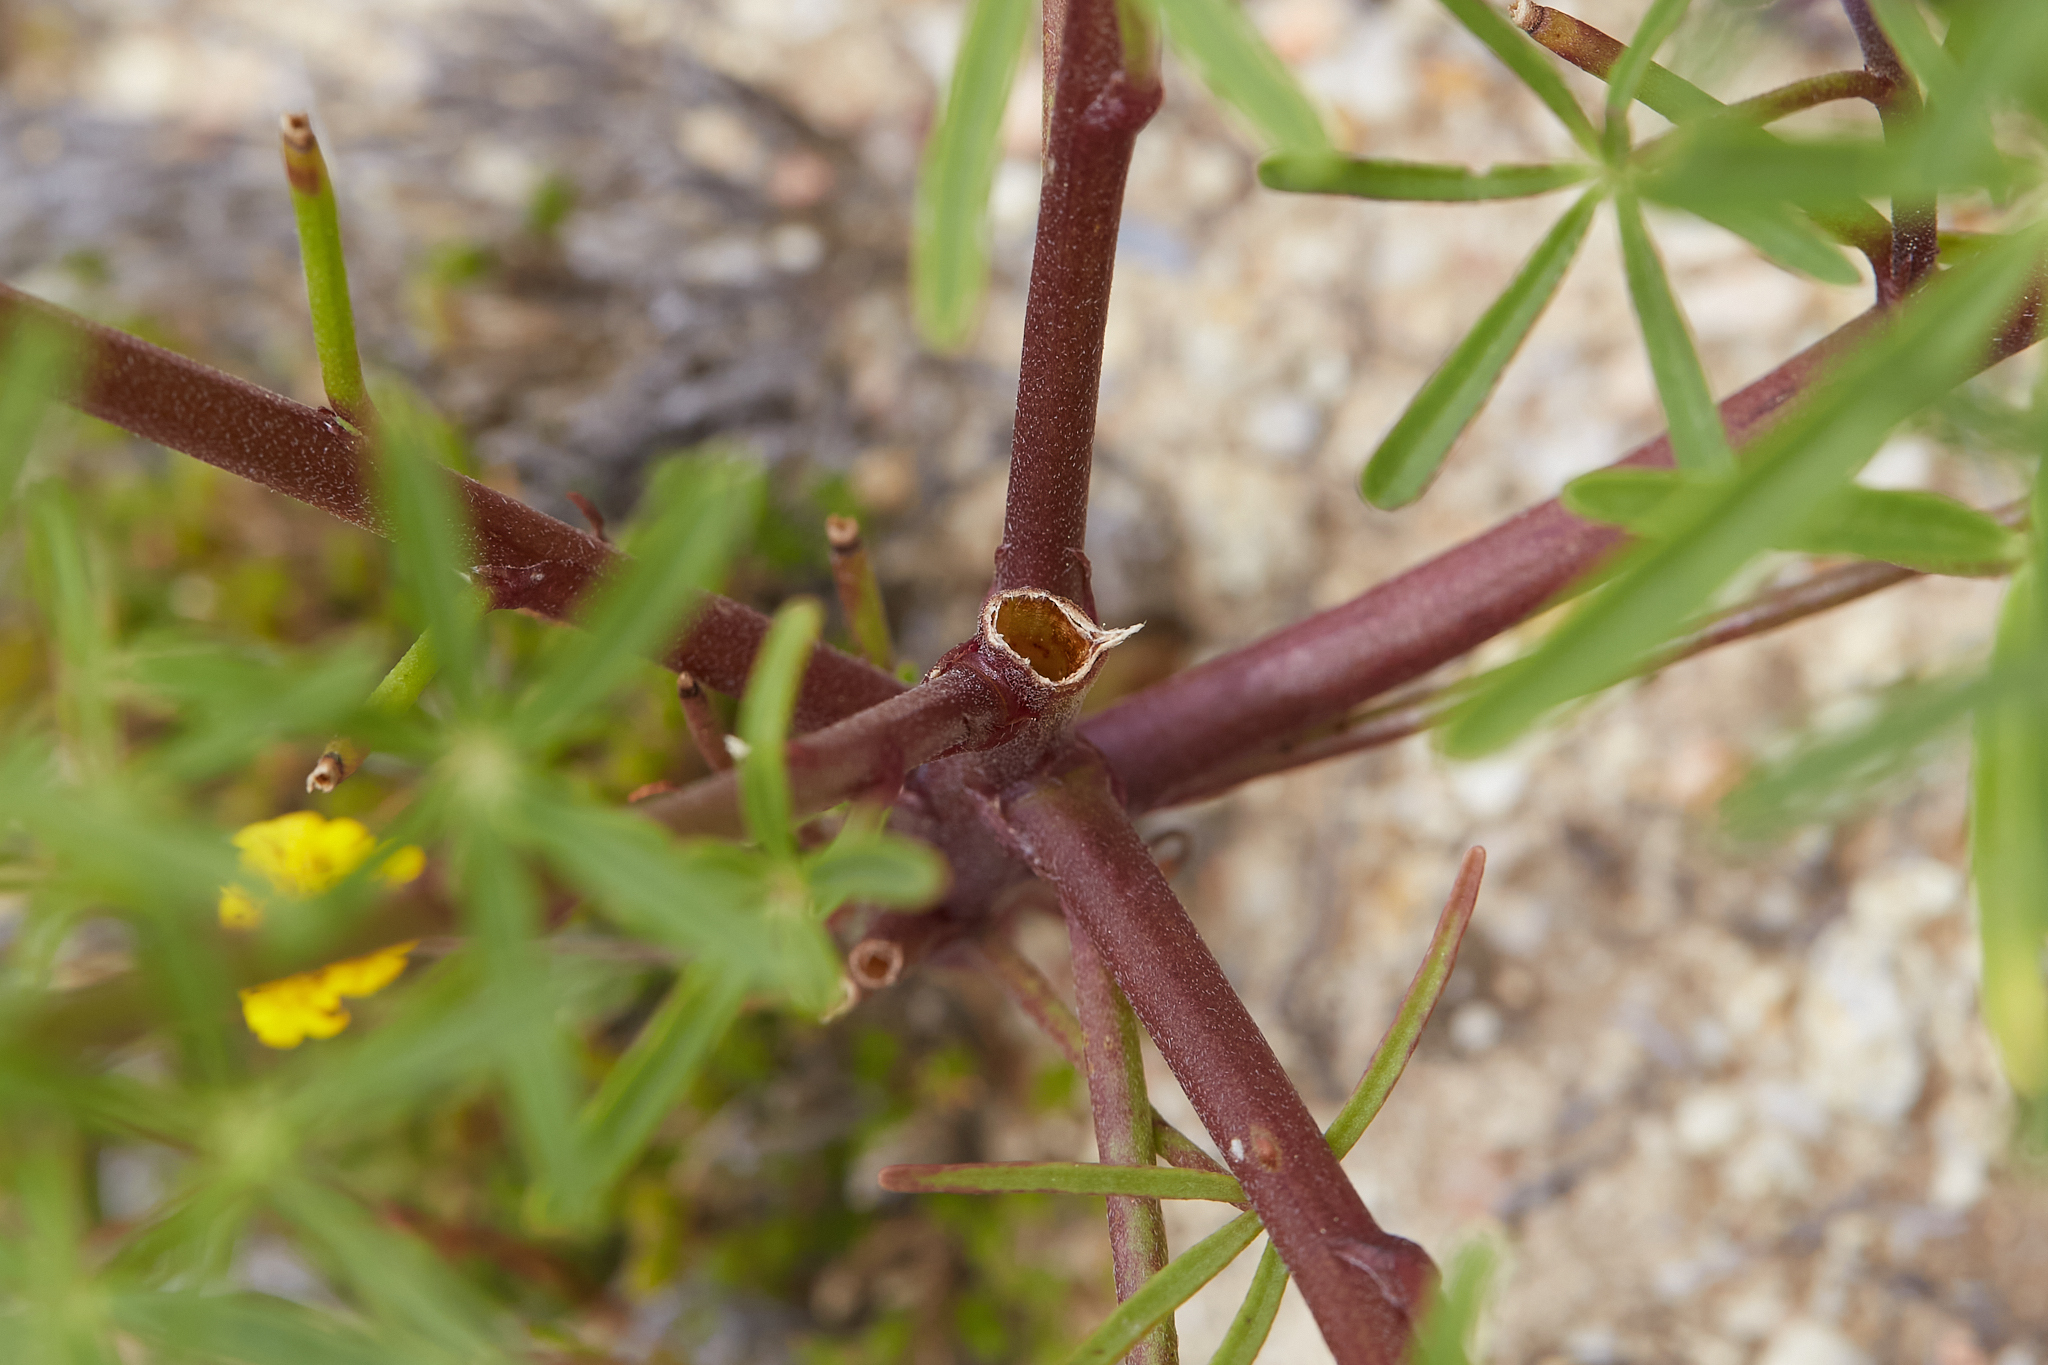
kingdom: Plantae
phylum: Tracheophyta
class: Magnoliopsida
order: Fabales
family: Fabaceae
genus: Lupinus
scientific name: Lupinus truncatus
